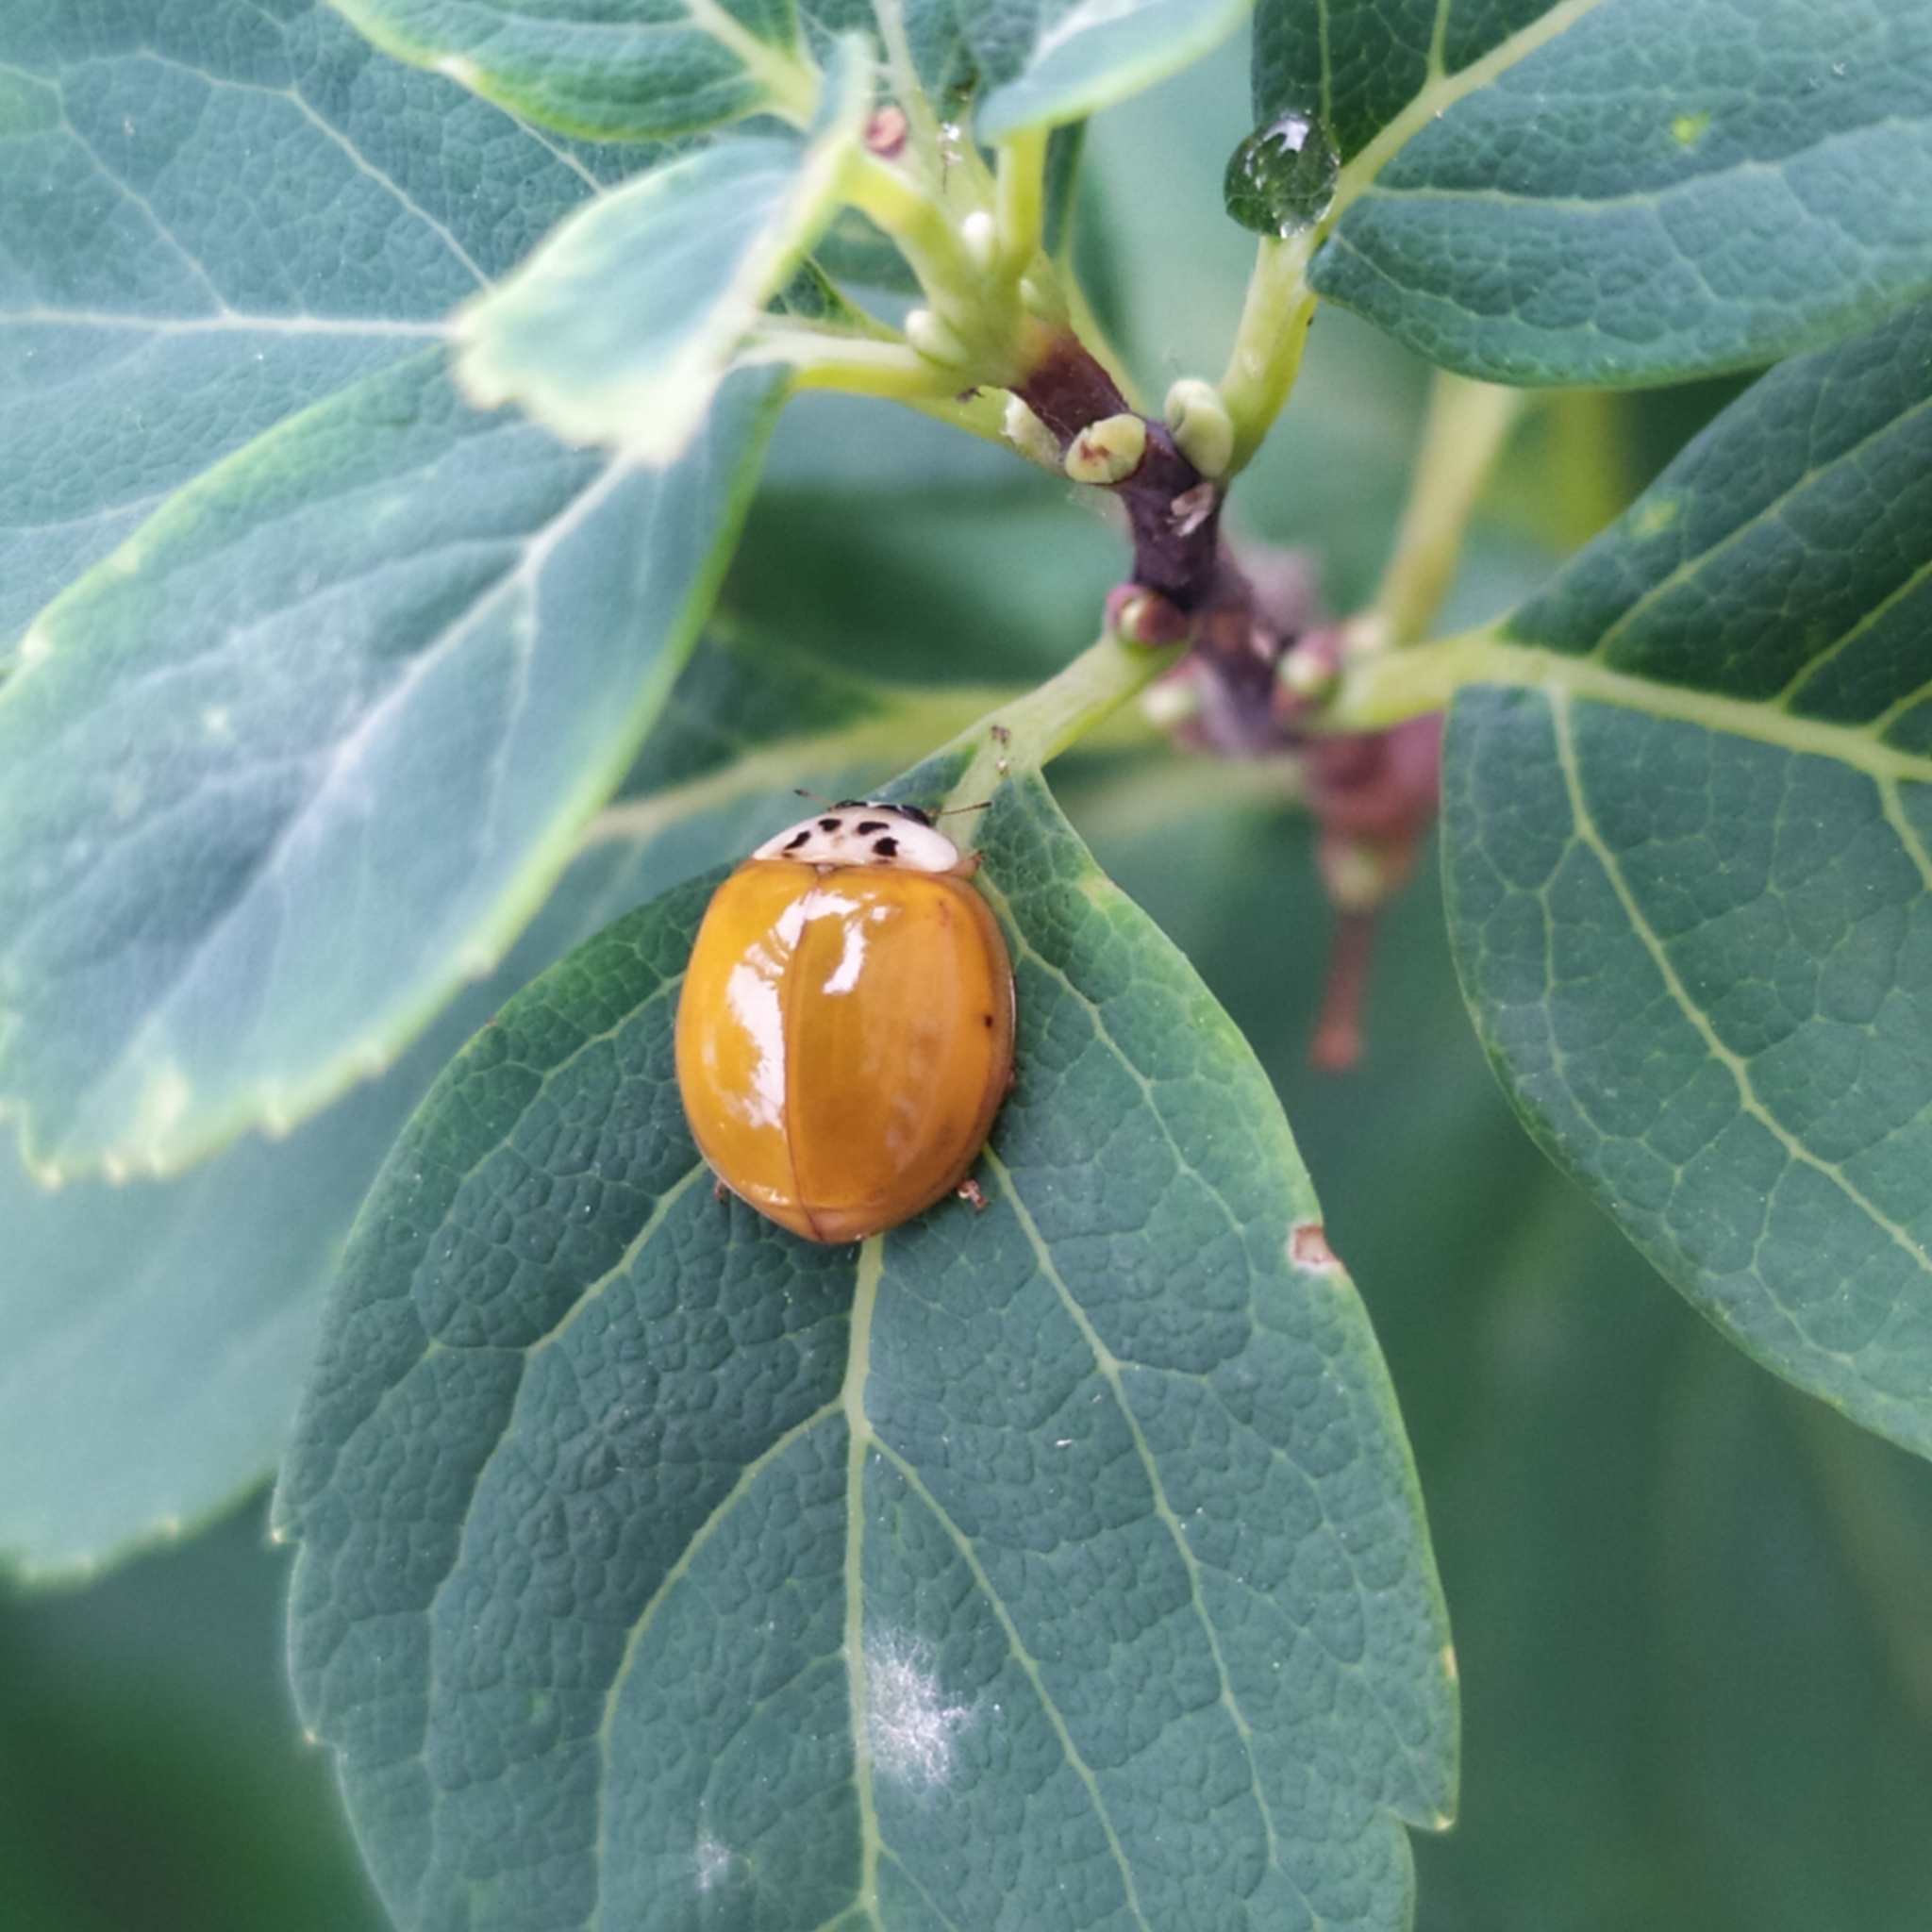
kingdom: Animalia
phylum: Arthropoda
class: Insecta
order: Coleoptera
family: Coccinellidae
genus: Harmonia
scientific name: Harmonia axyridis
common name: Harlequin ladybird
